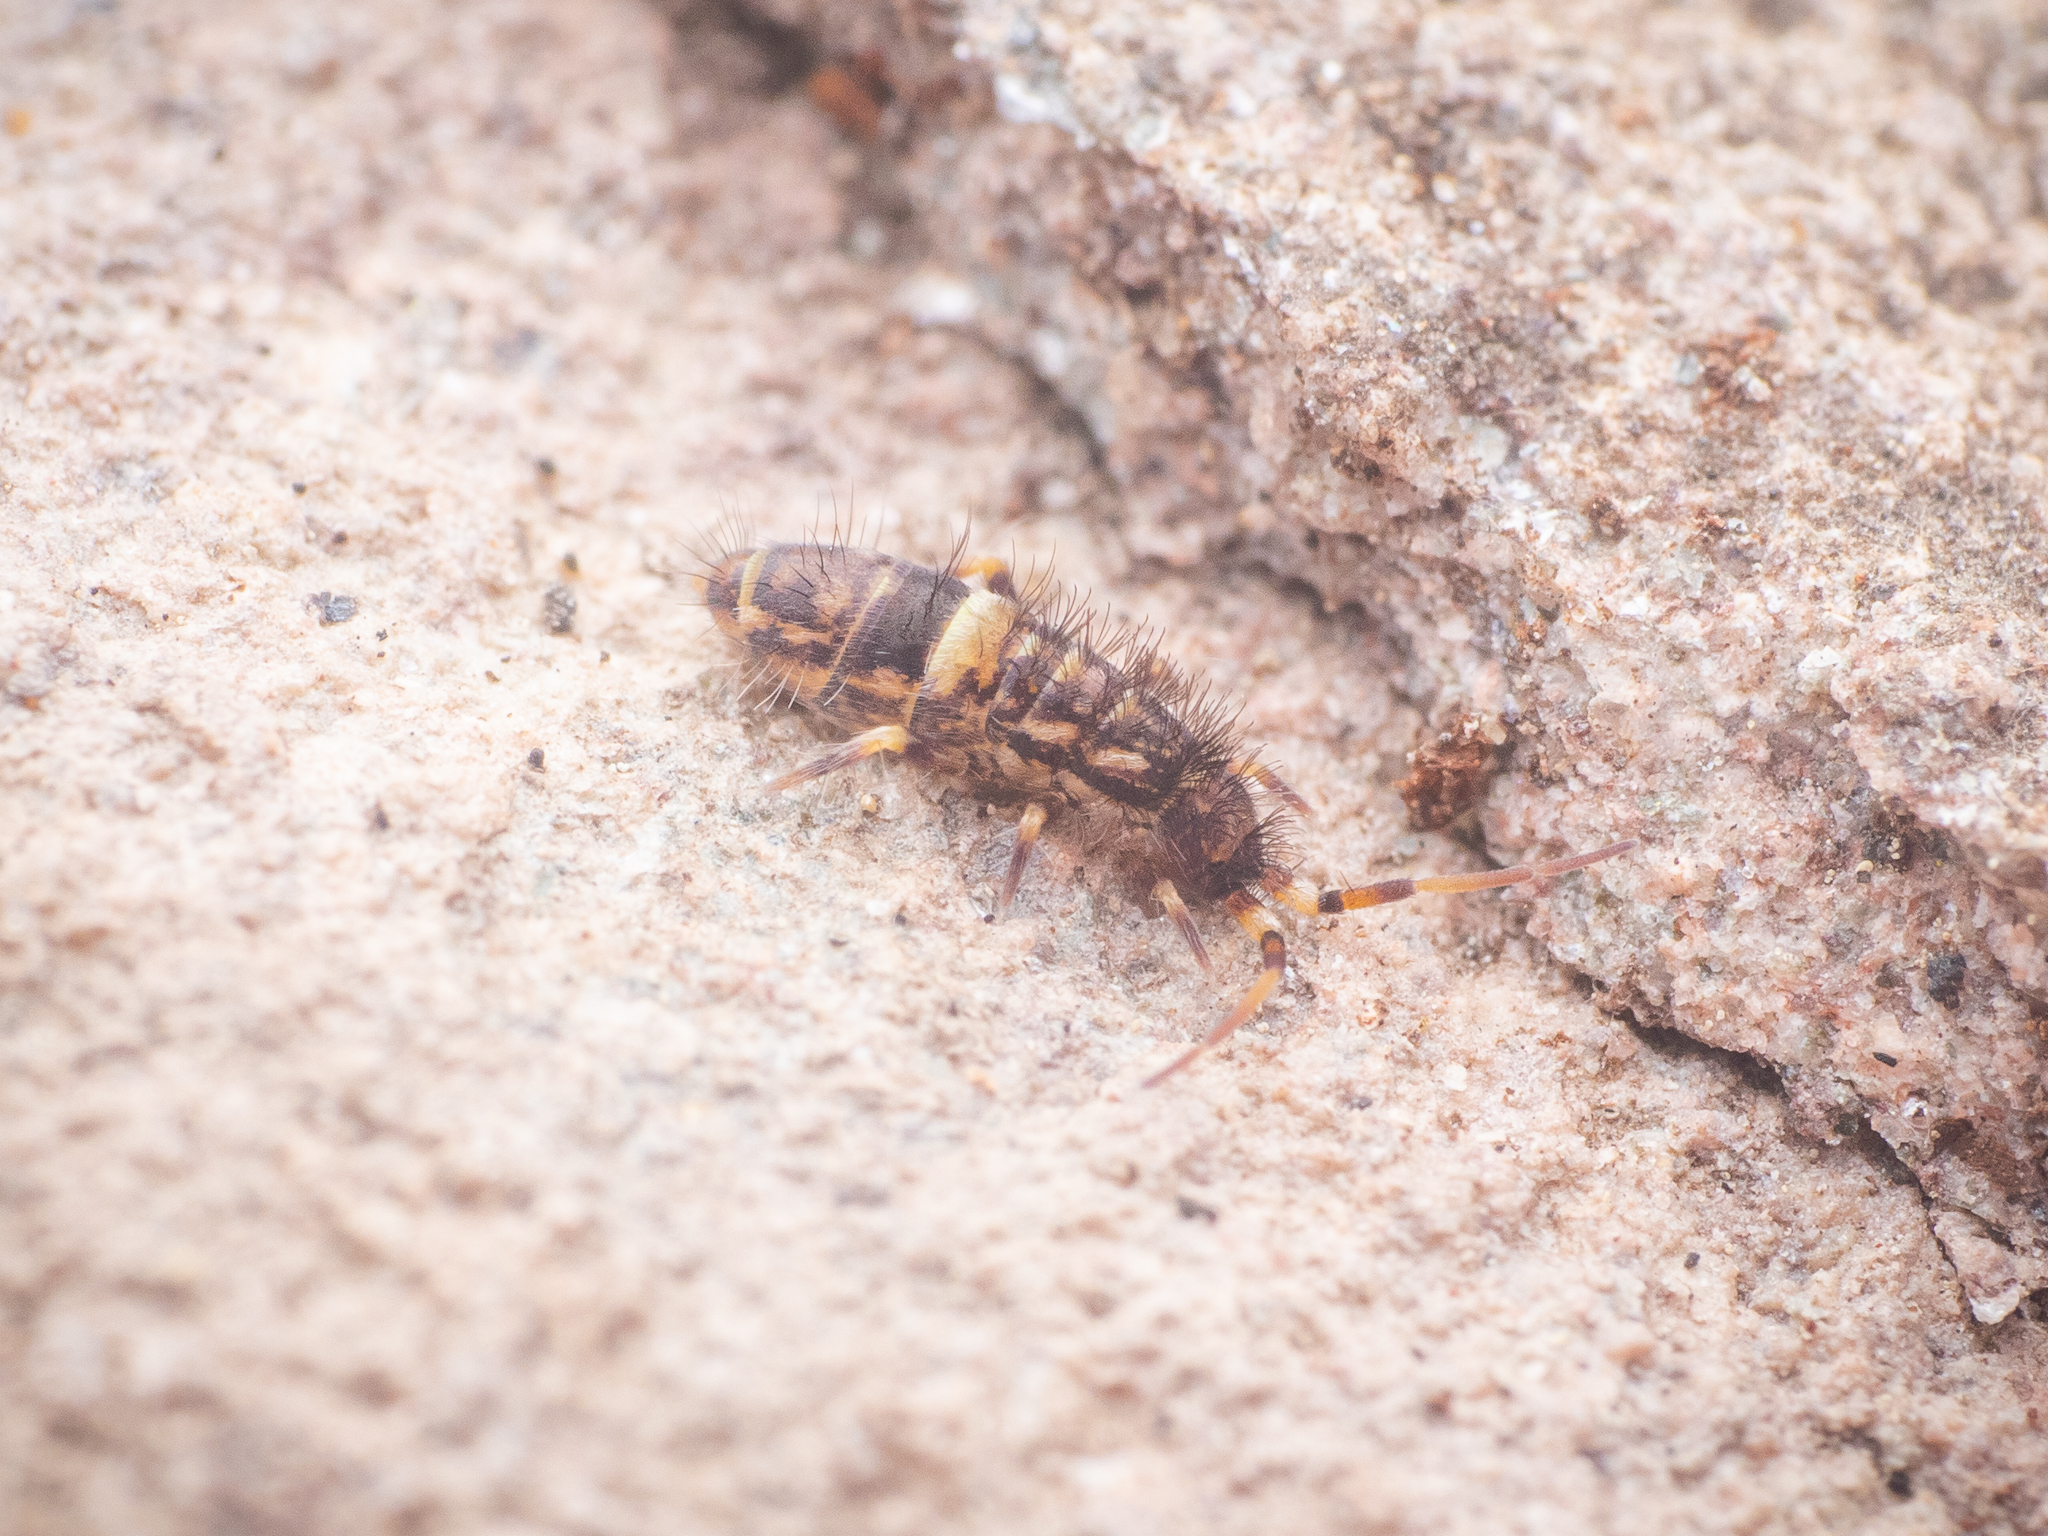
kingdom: Animalia
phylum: Arthropoda
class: Collembola
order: Entomobryomorpha
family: Orchesellidae
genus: Orchesella
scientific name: Orchesella cincta
